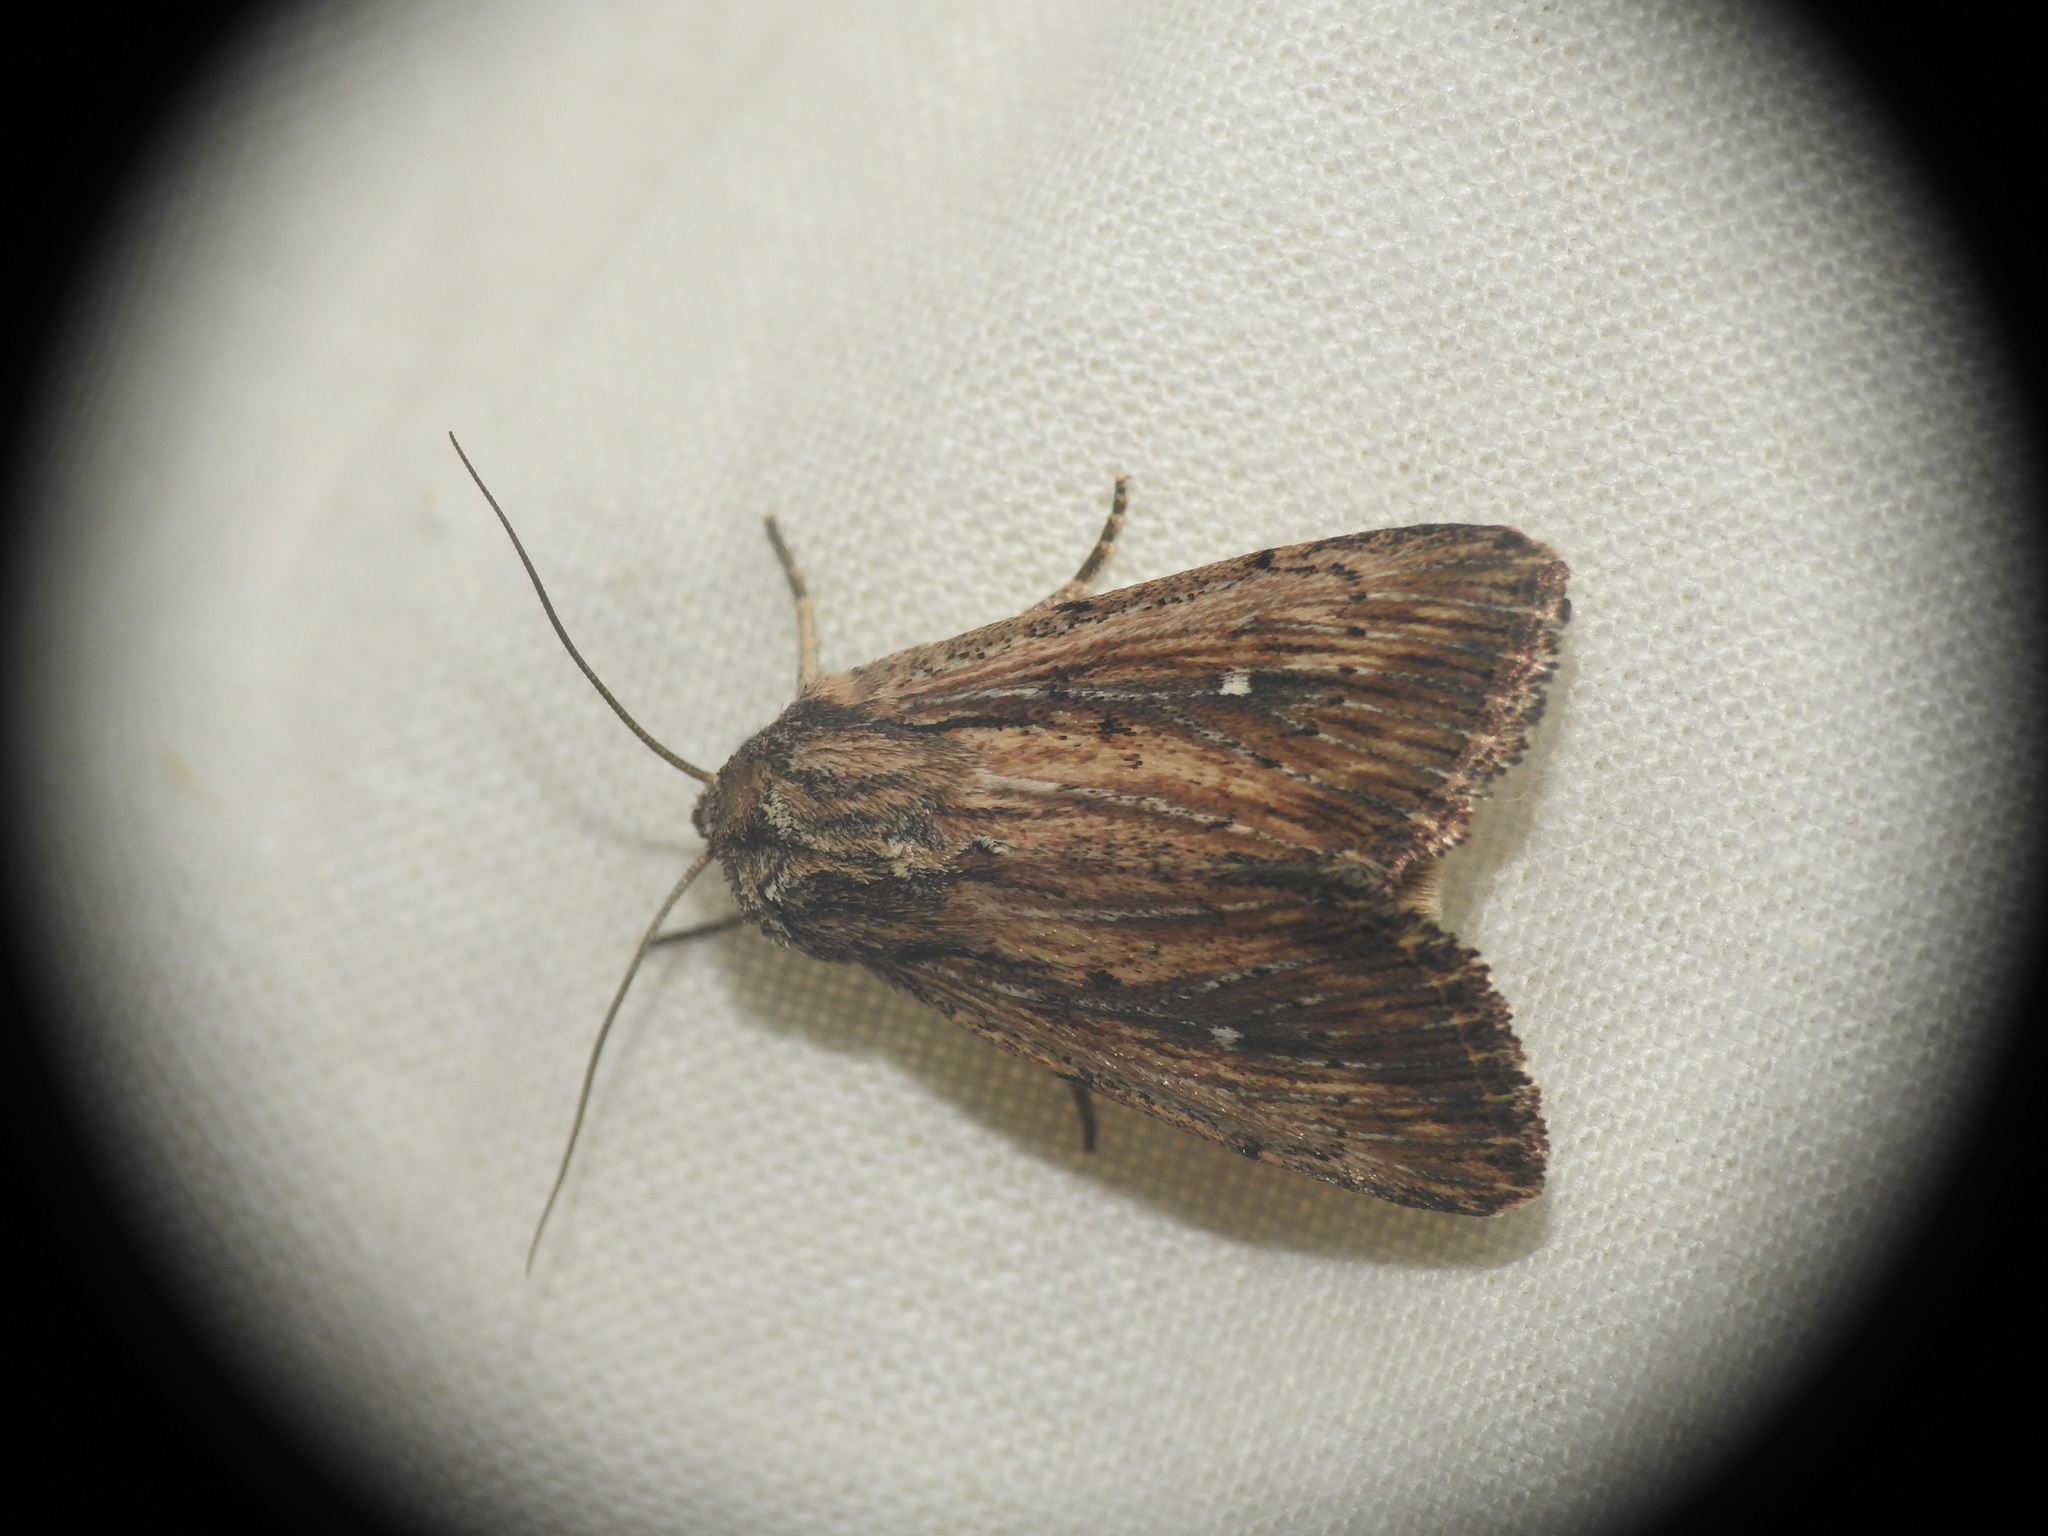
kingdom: Animalia
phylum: Arthropoda
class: Insecta
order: Lepidoptera
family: Noctuidae
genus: Leucania
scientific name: Leucania putrescens
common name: Devonshire wainscot
